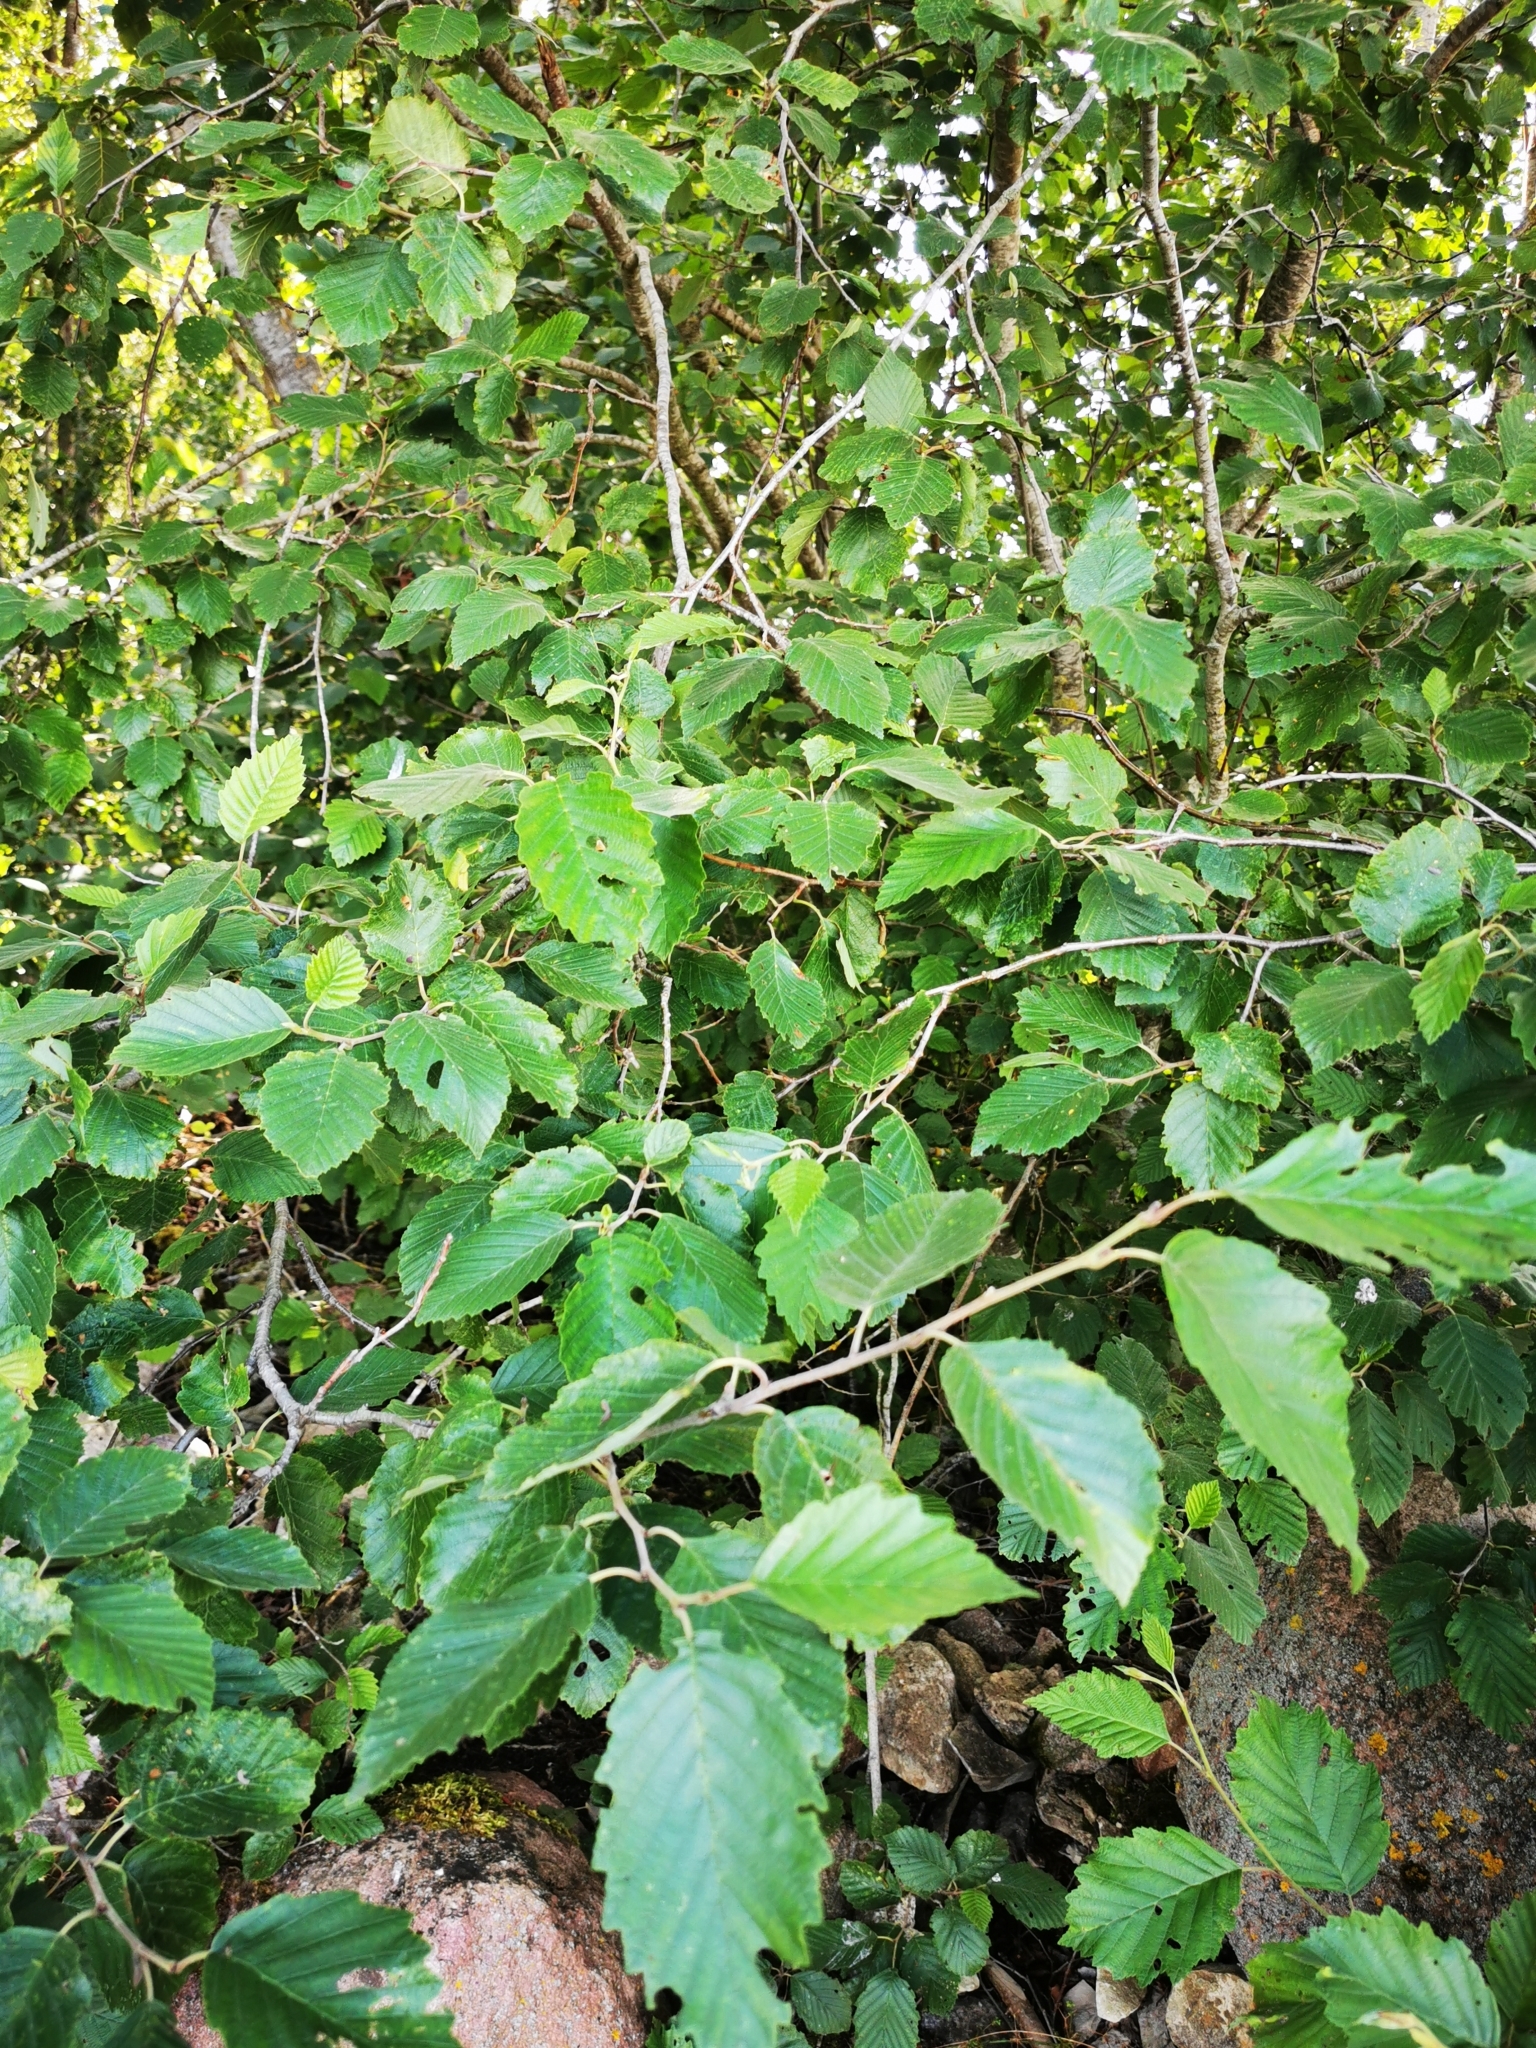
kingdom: Plantae
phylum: Tracheophyta
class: Magnoliopsida
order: Fagales
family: Betulaceae
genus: Alnus
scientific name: Alnus incana
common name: Grey alder
